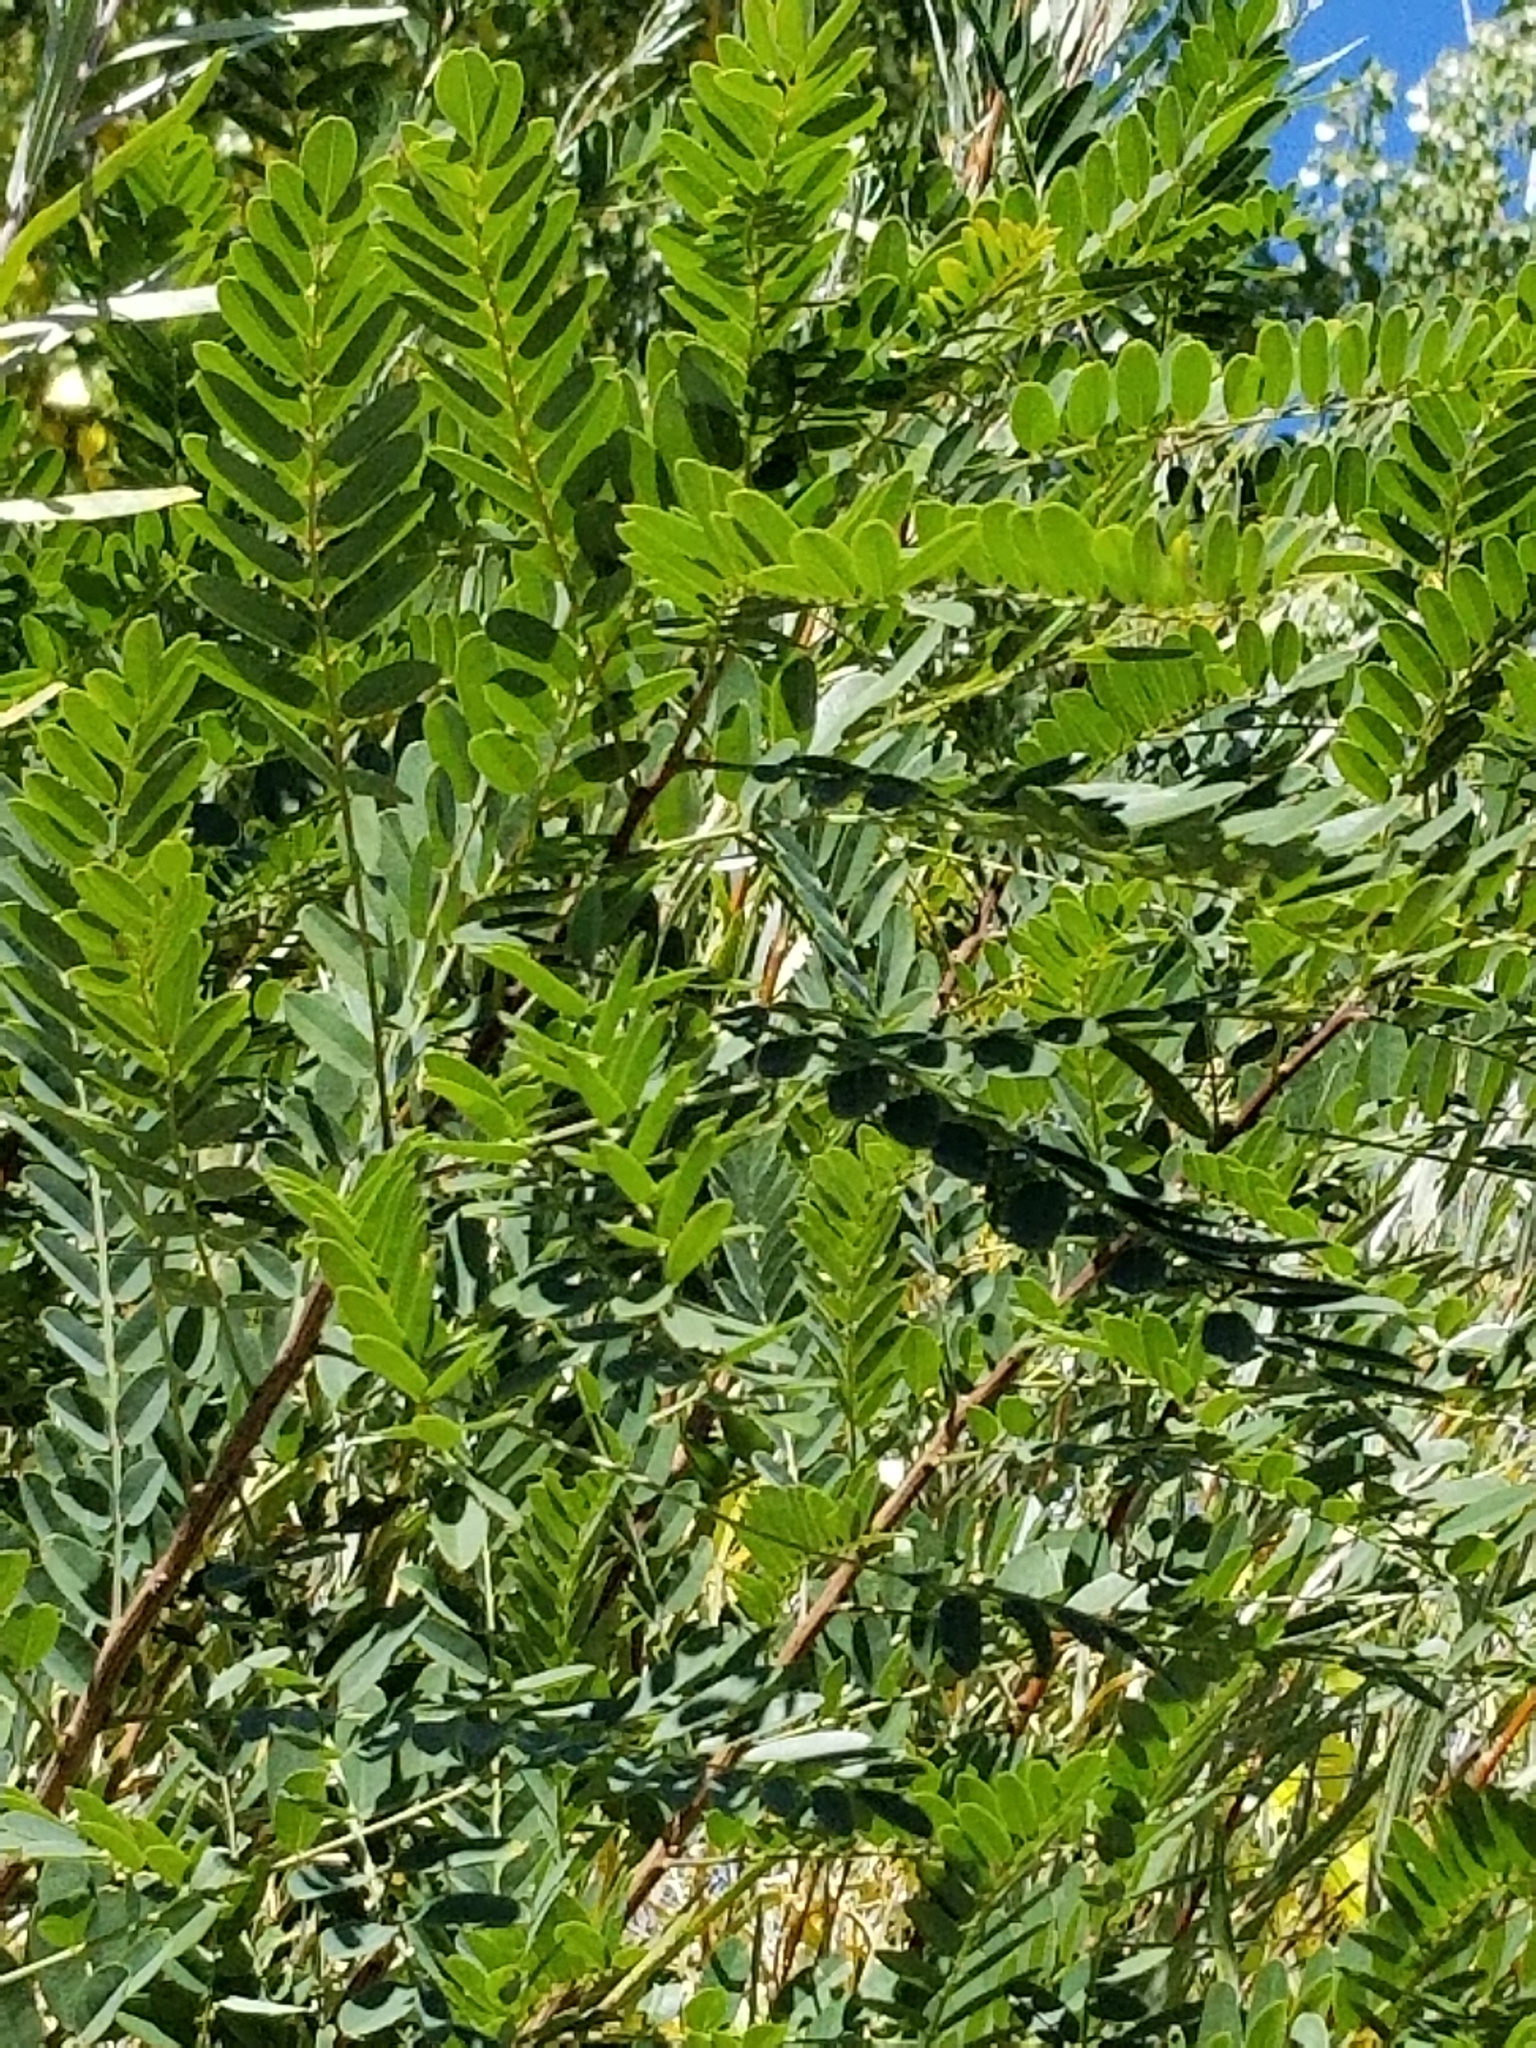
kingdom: Plantae
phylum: Tracheophyta
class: Magnoliopsida
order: Fabales
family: Fabaceae
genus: Robinia
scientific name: Robinia pseudoacacia
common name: Black locust
